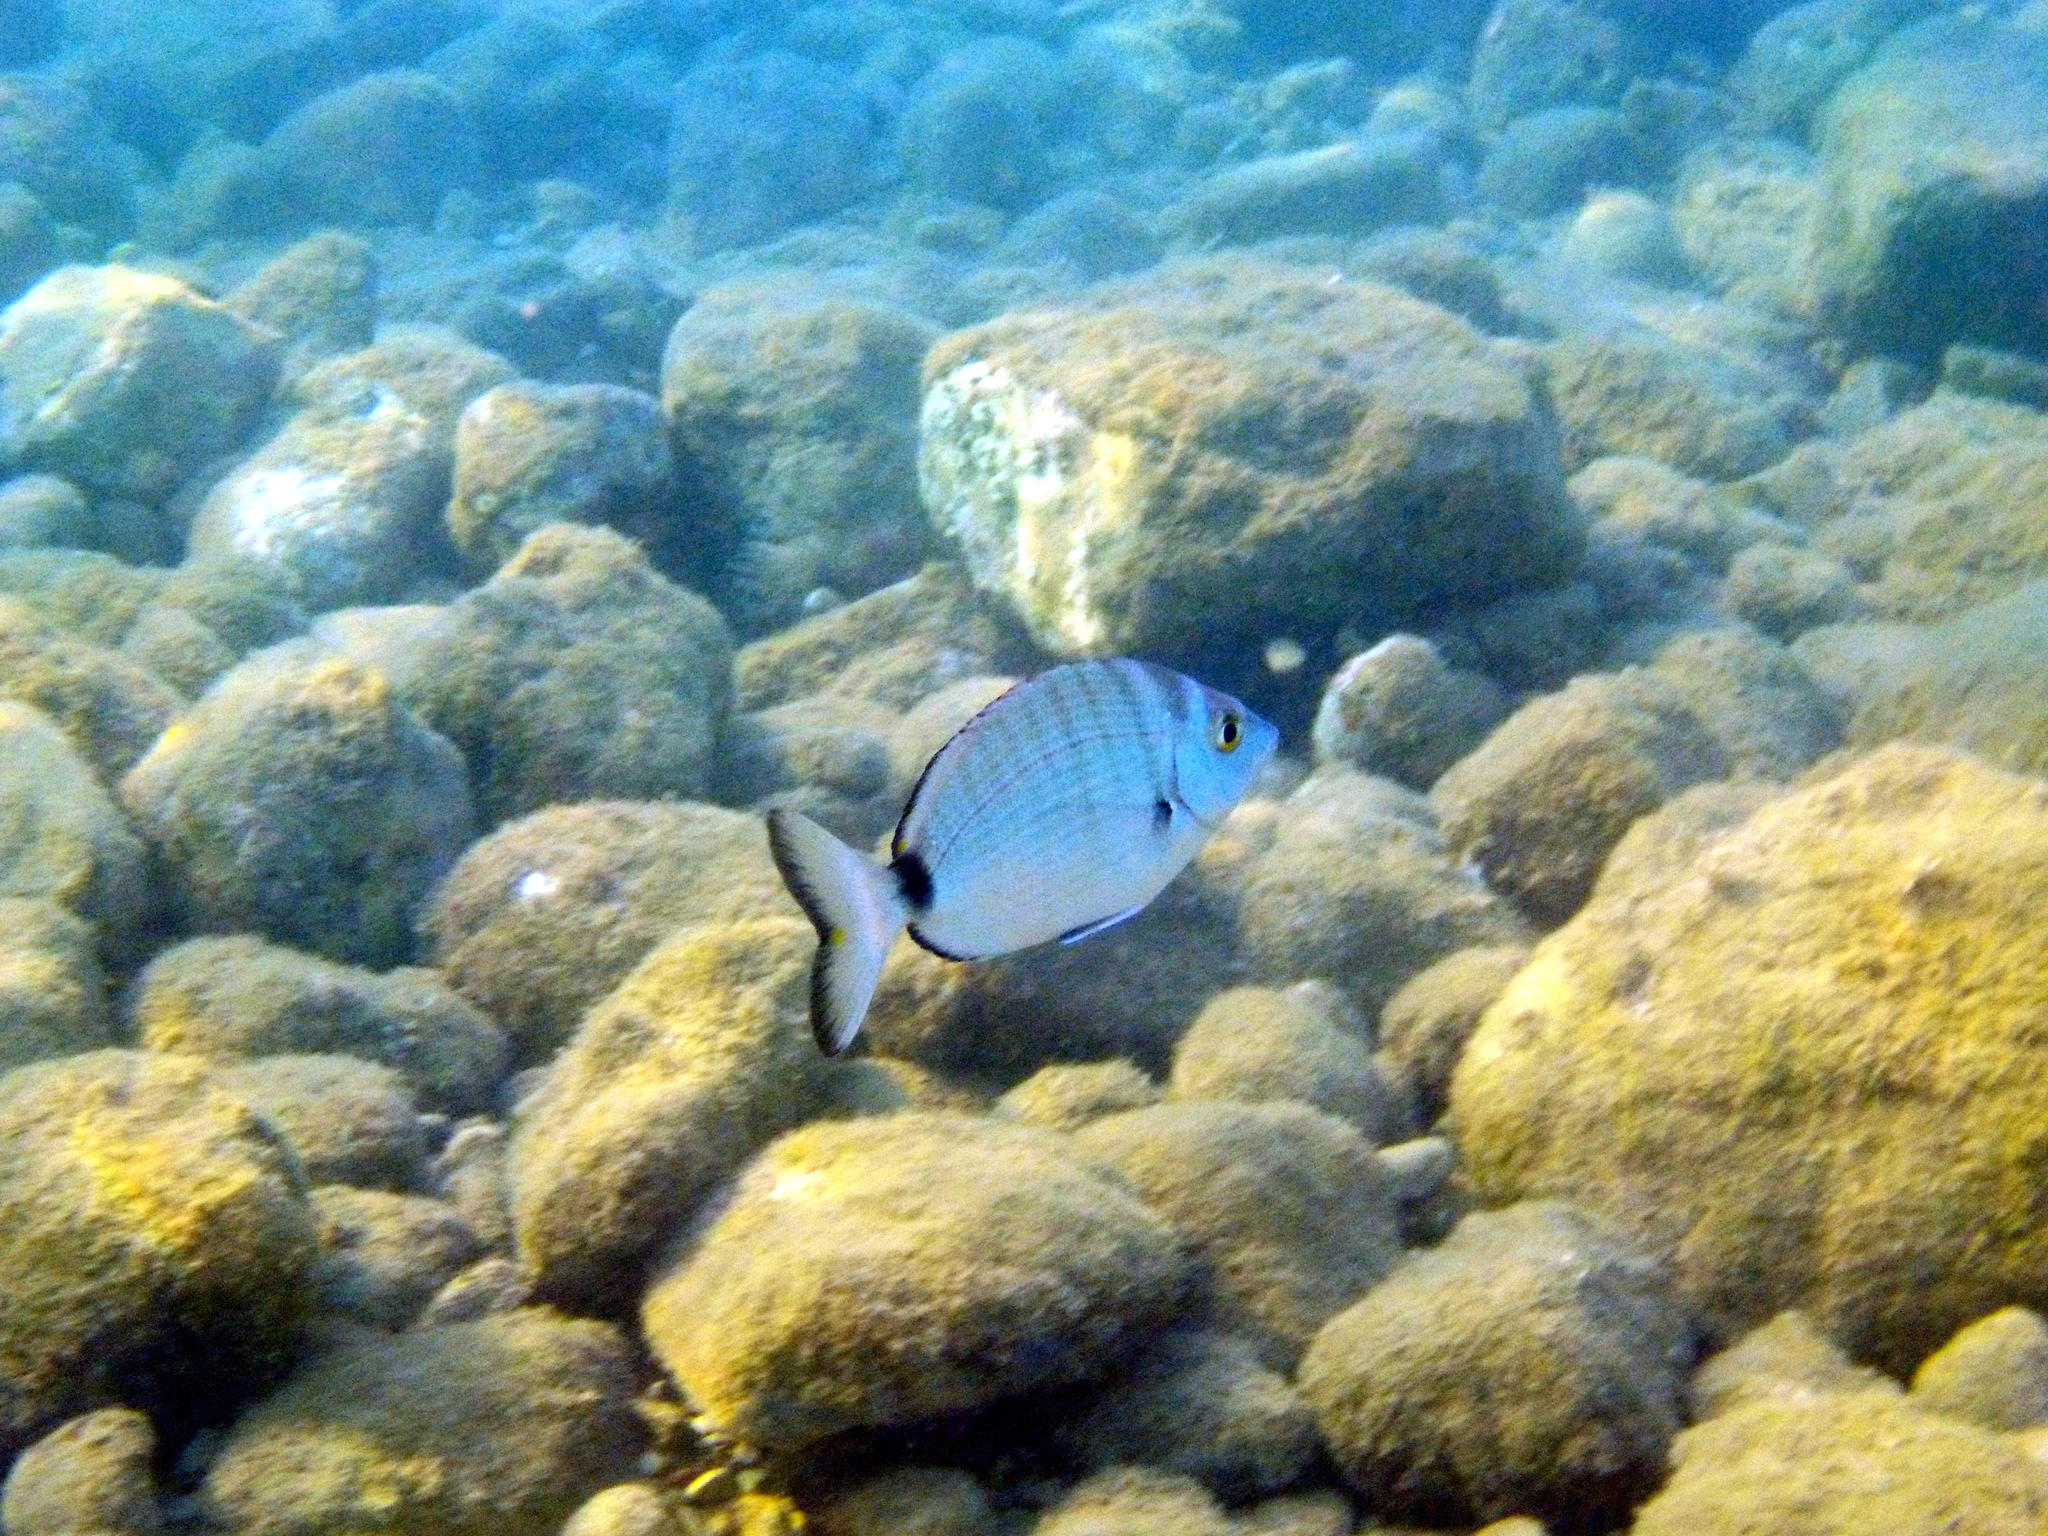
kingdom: Animalia
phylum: Chordata
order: Perciformes
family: Sparidae
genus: Diplodus
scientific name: Diplodus puntazzo
